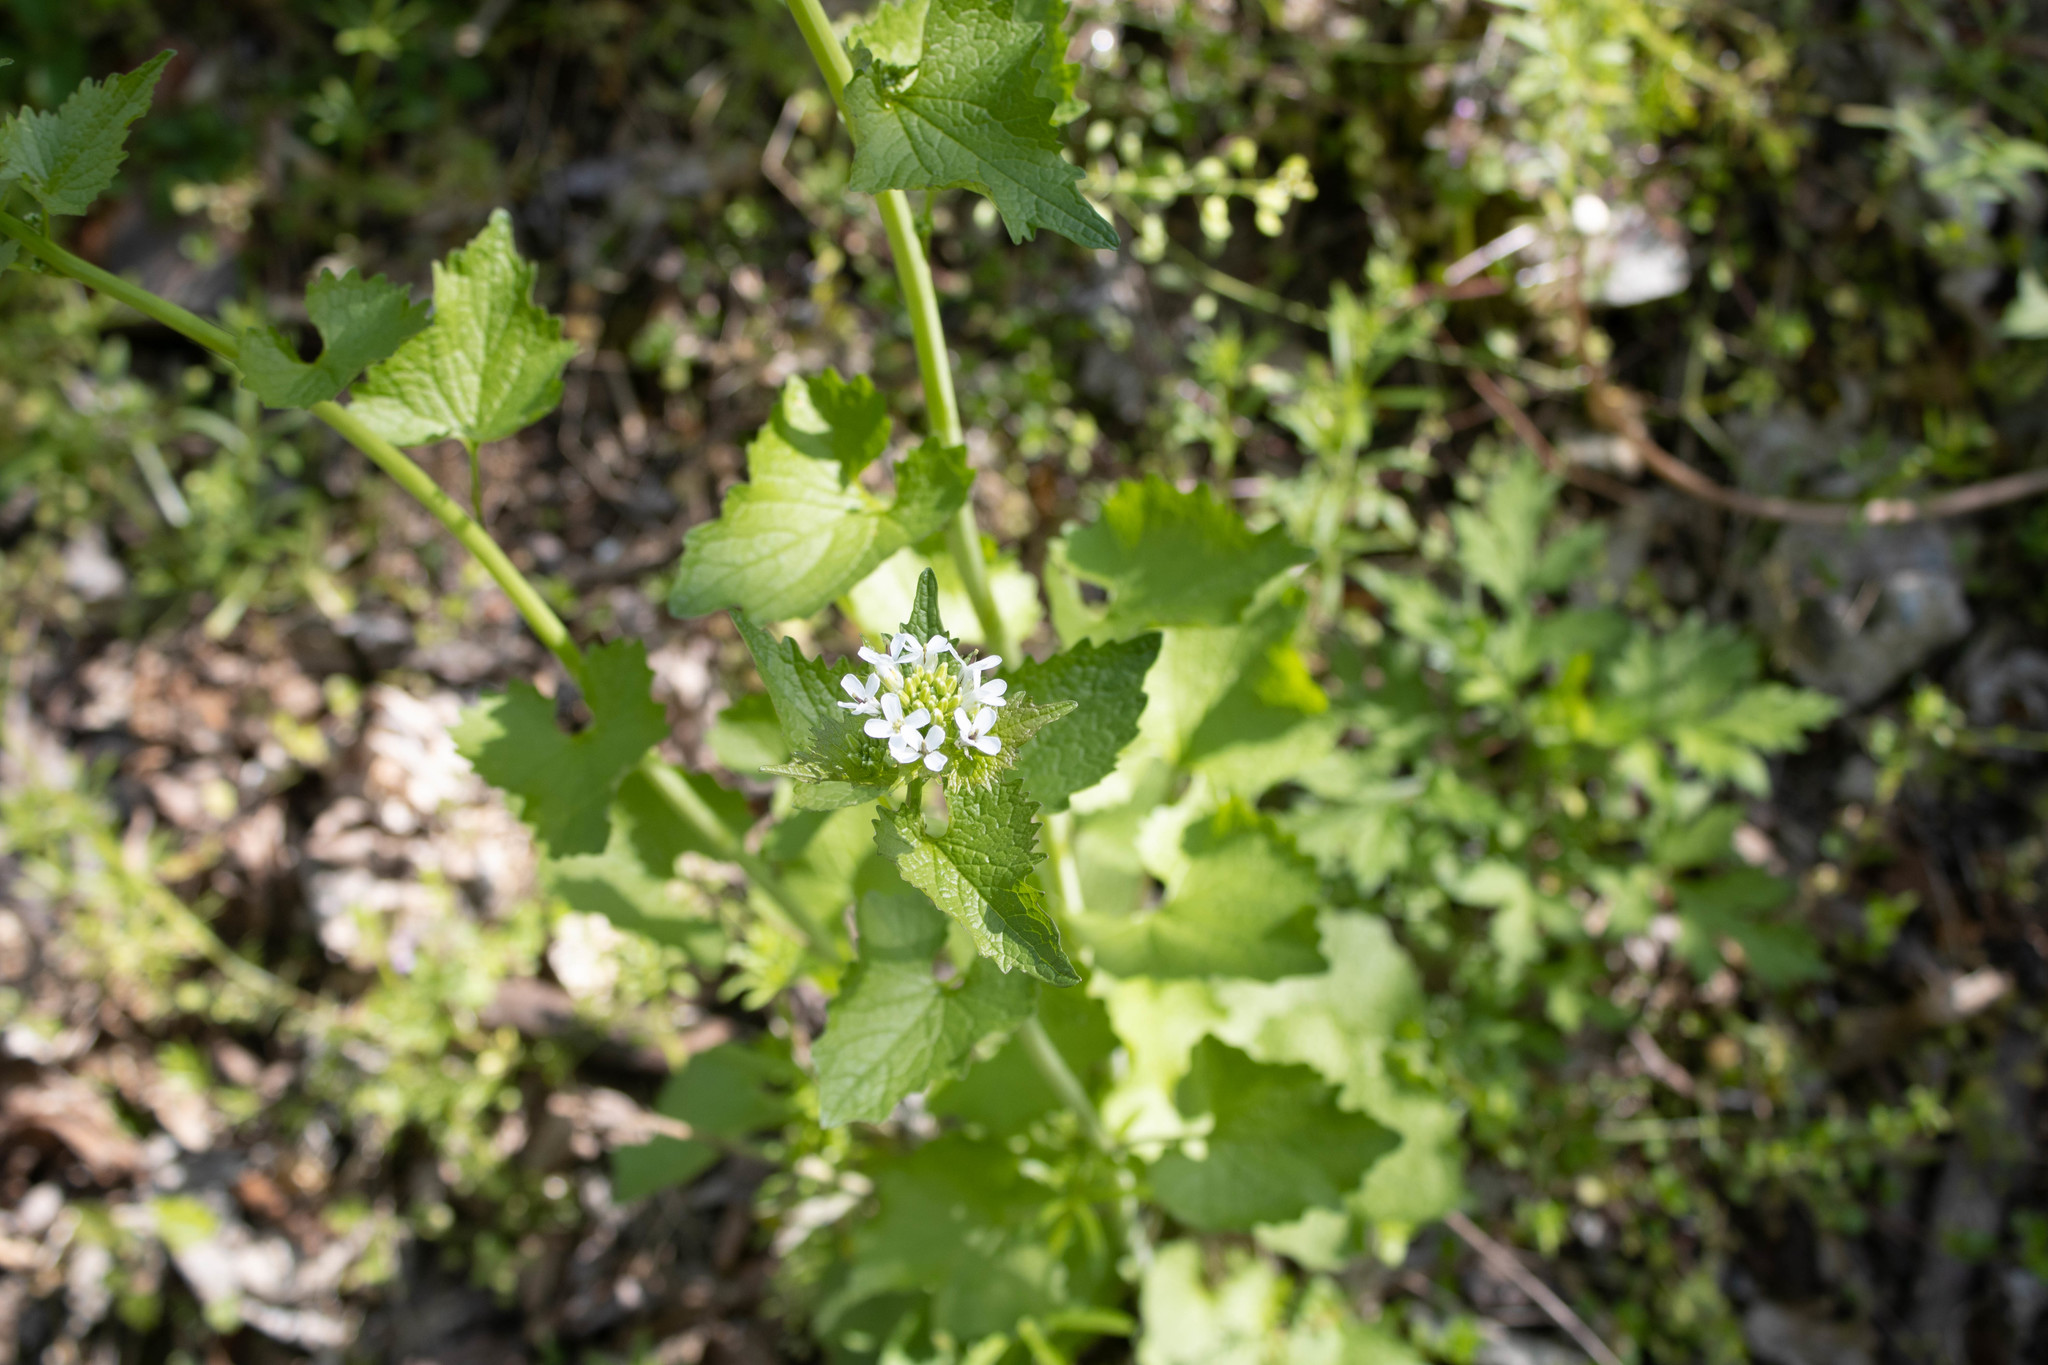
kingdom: Plantae
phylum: Tracheophyta
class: Magnoliopsida
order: Brassicales
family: Brassicaceae
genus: Alliaria
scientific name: Alliaria petiolata
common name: Garlic mustard
